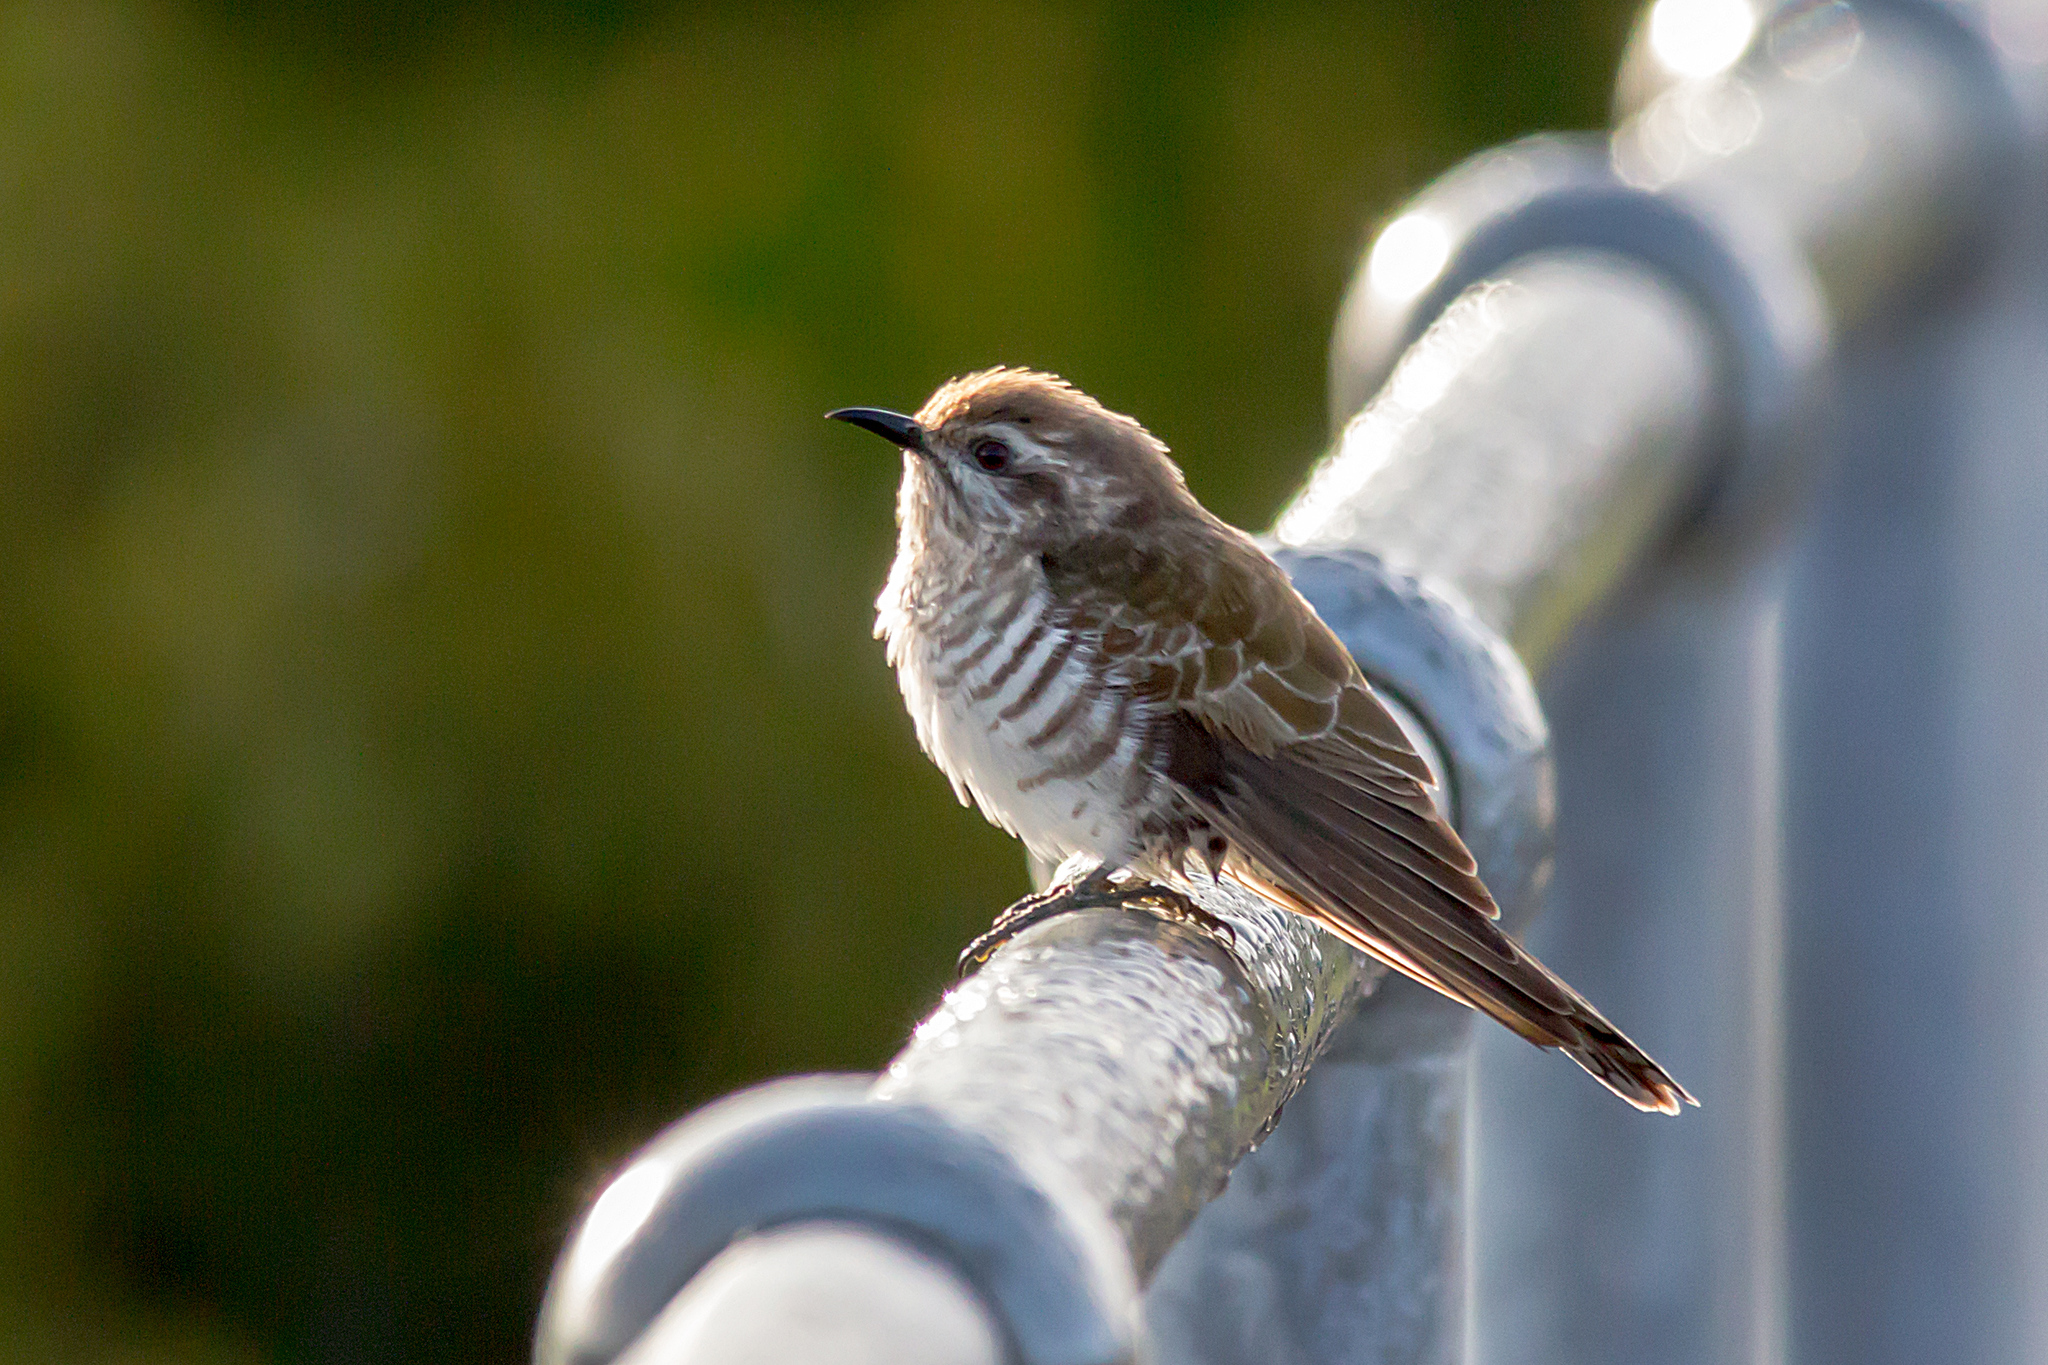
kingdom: Animalia
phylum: Chordata
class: Aves
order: Cuculiformes
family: Cuculidae
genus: Chrysococcyx
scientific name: Chrysococcyx basalis
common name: Horsfield's bronze cuckoo
